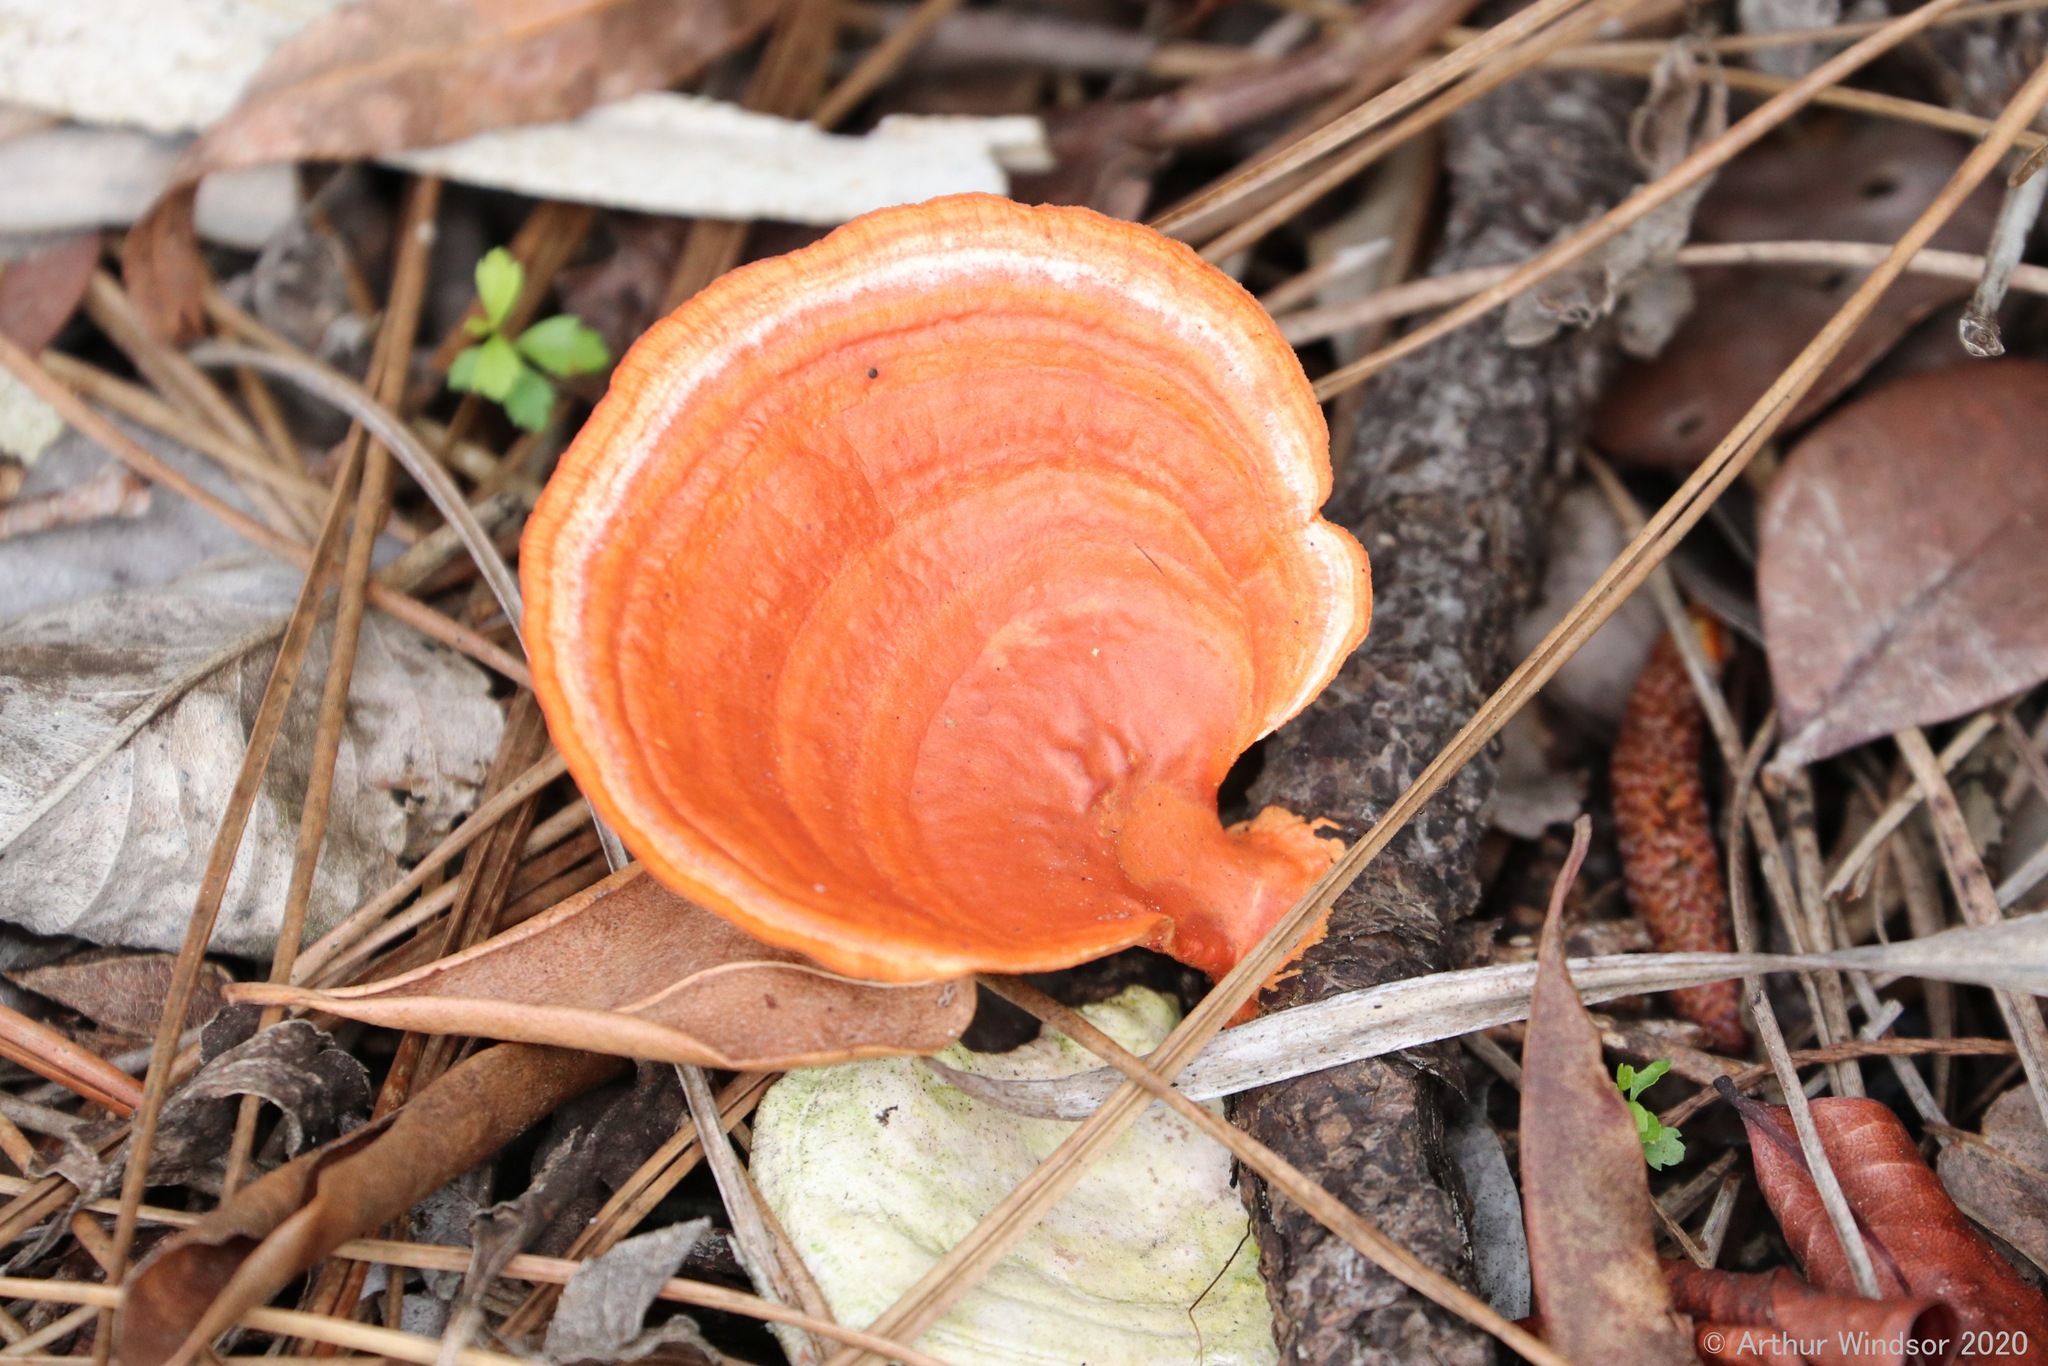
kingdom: Fungi
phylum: Basidiomycota
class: Agaricomycetes
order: Polyporales
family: Polyporaceae
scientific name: Polyporaceae
